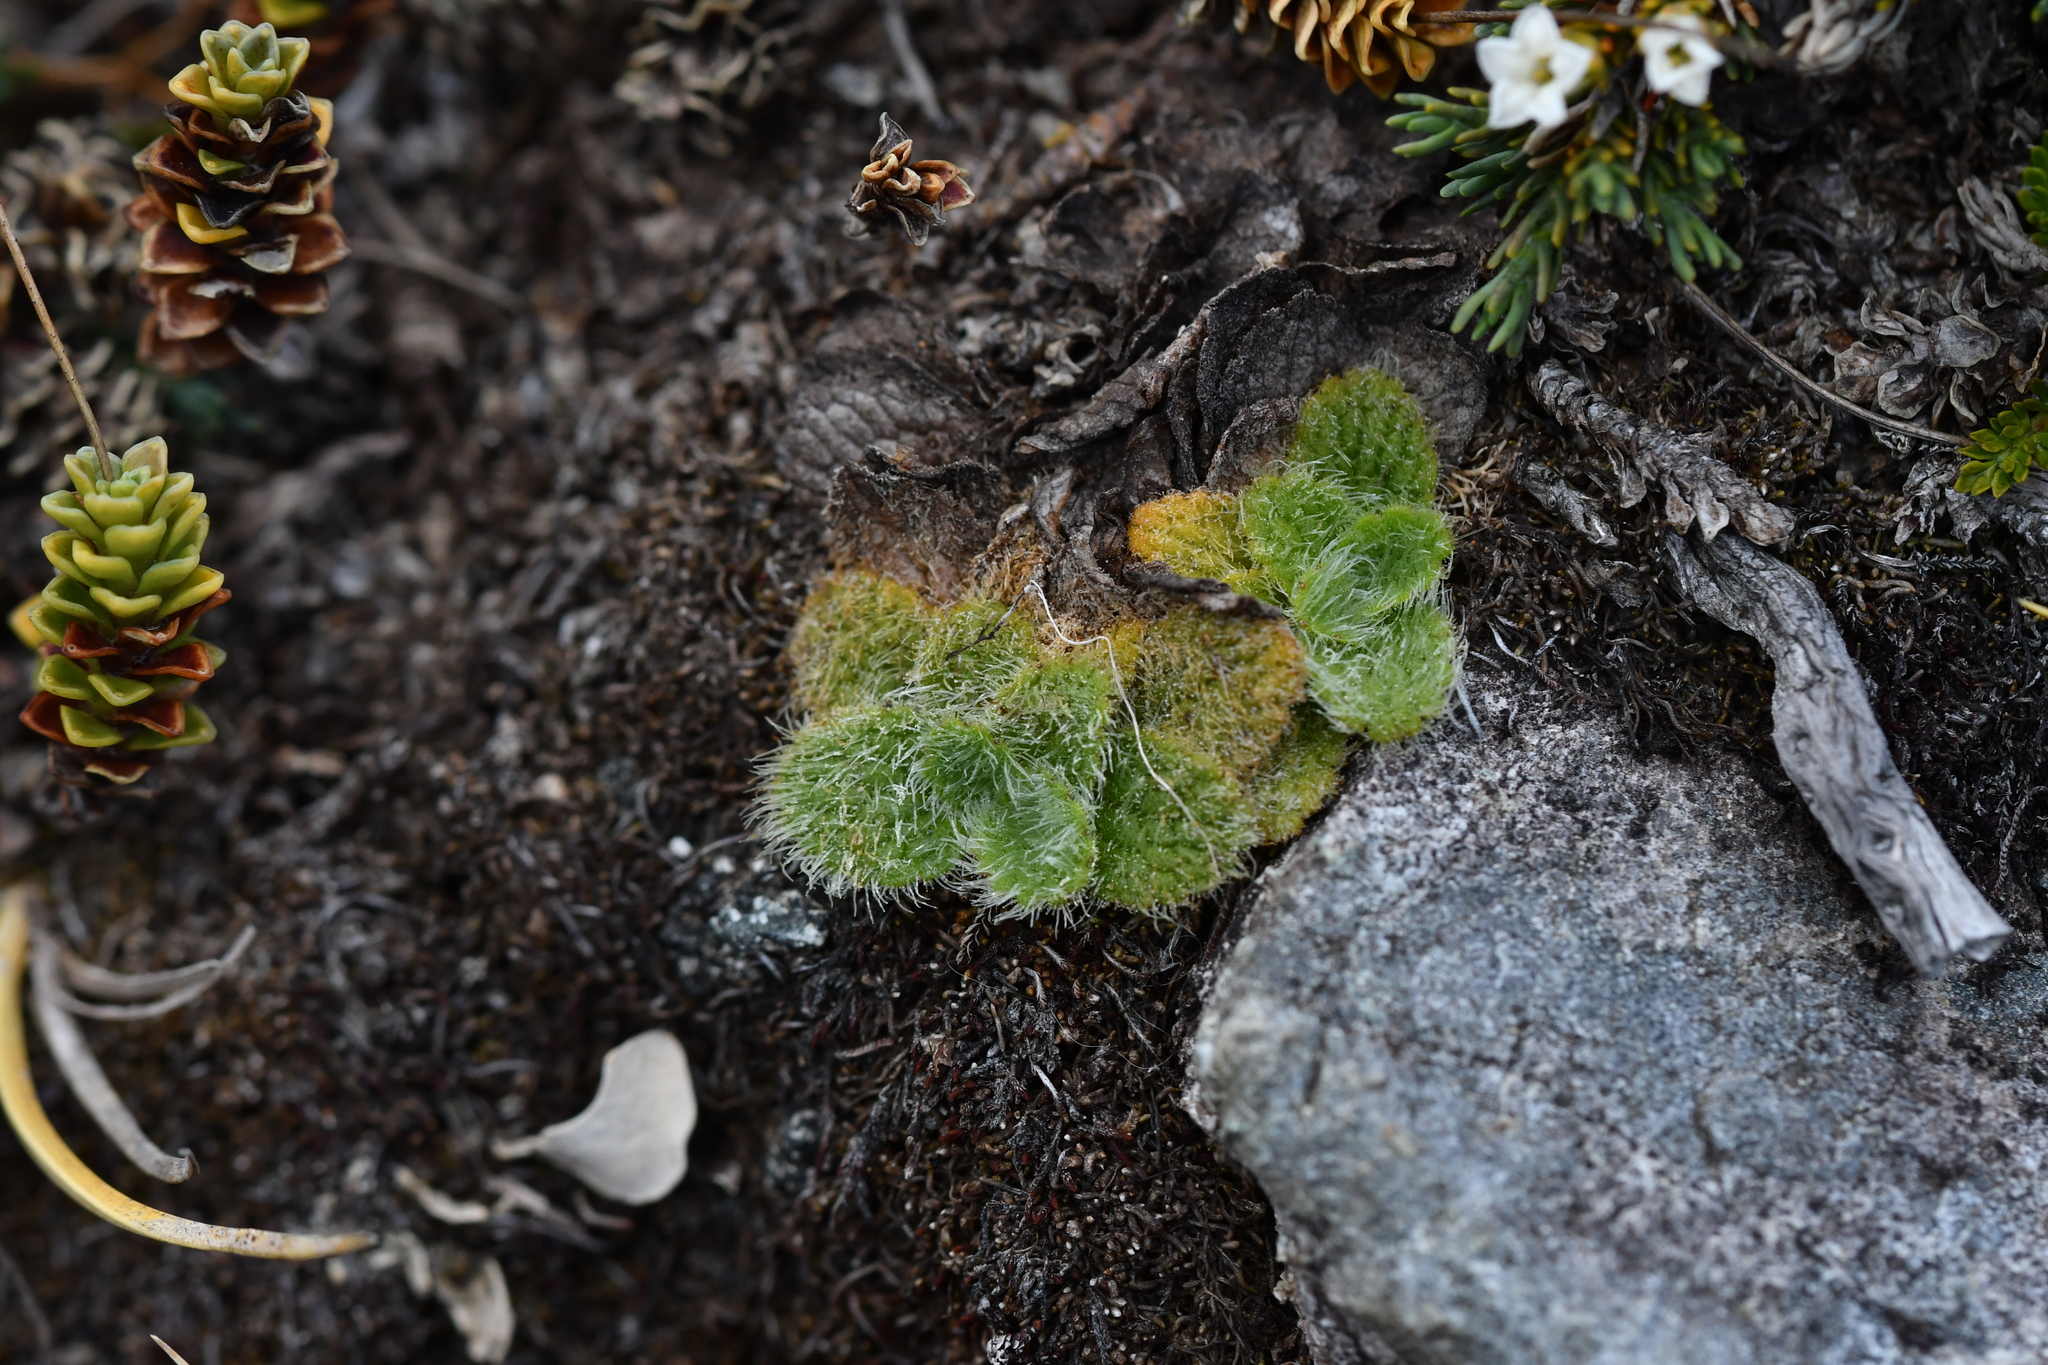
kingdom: Plantae
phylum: Tracheophyta
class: Magnoliopsida
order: Lamiales
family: Plantaginaceae
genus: Ourisia
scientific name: Ourisia sessilifolia
